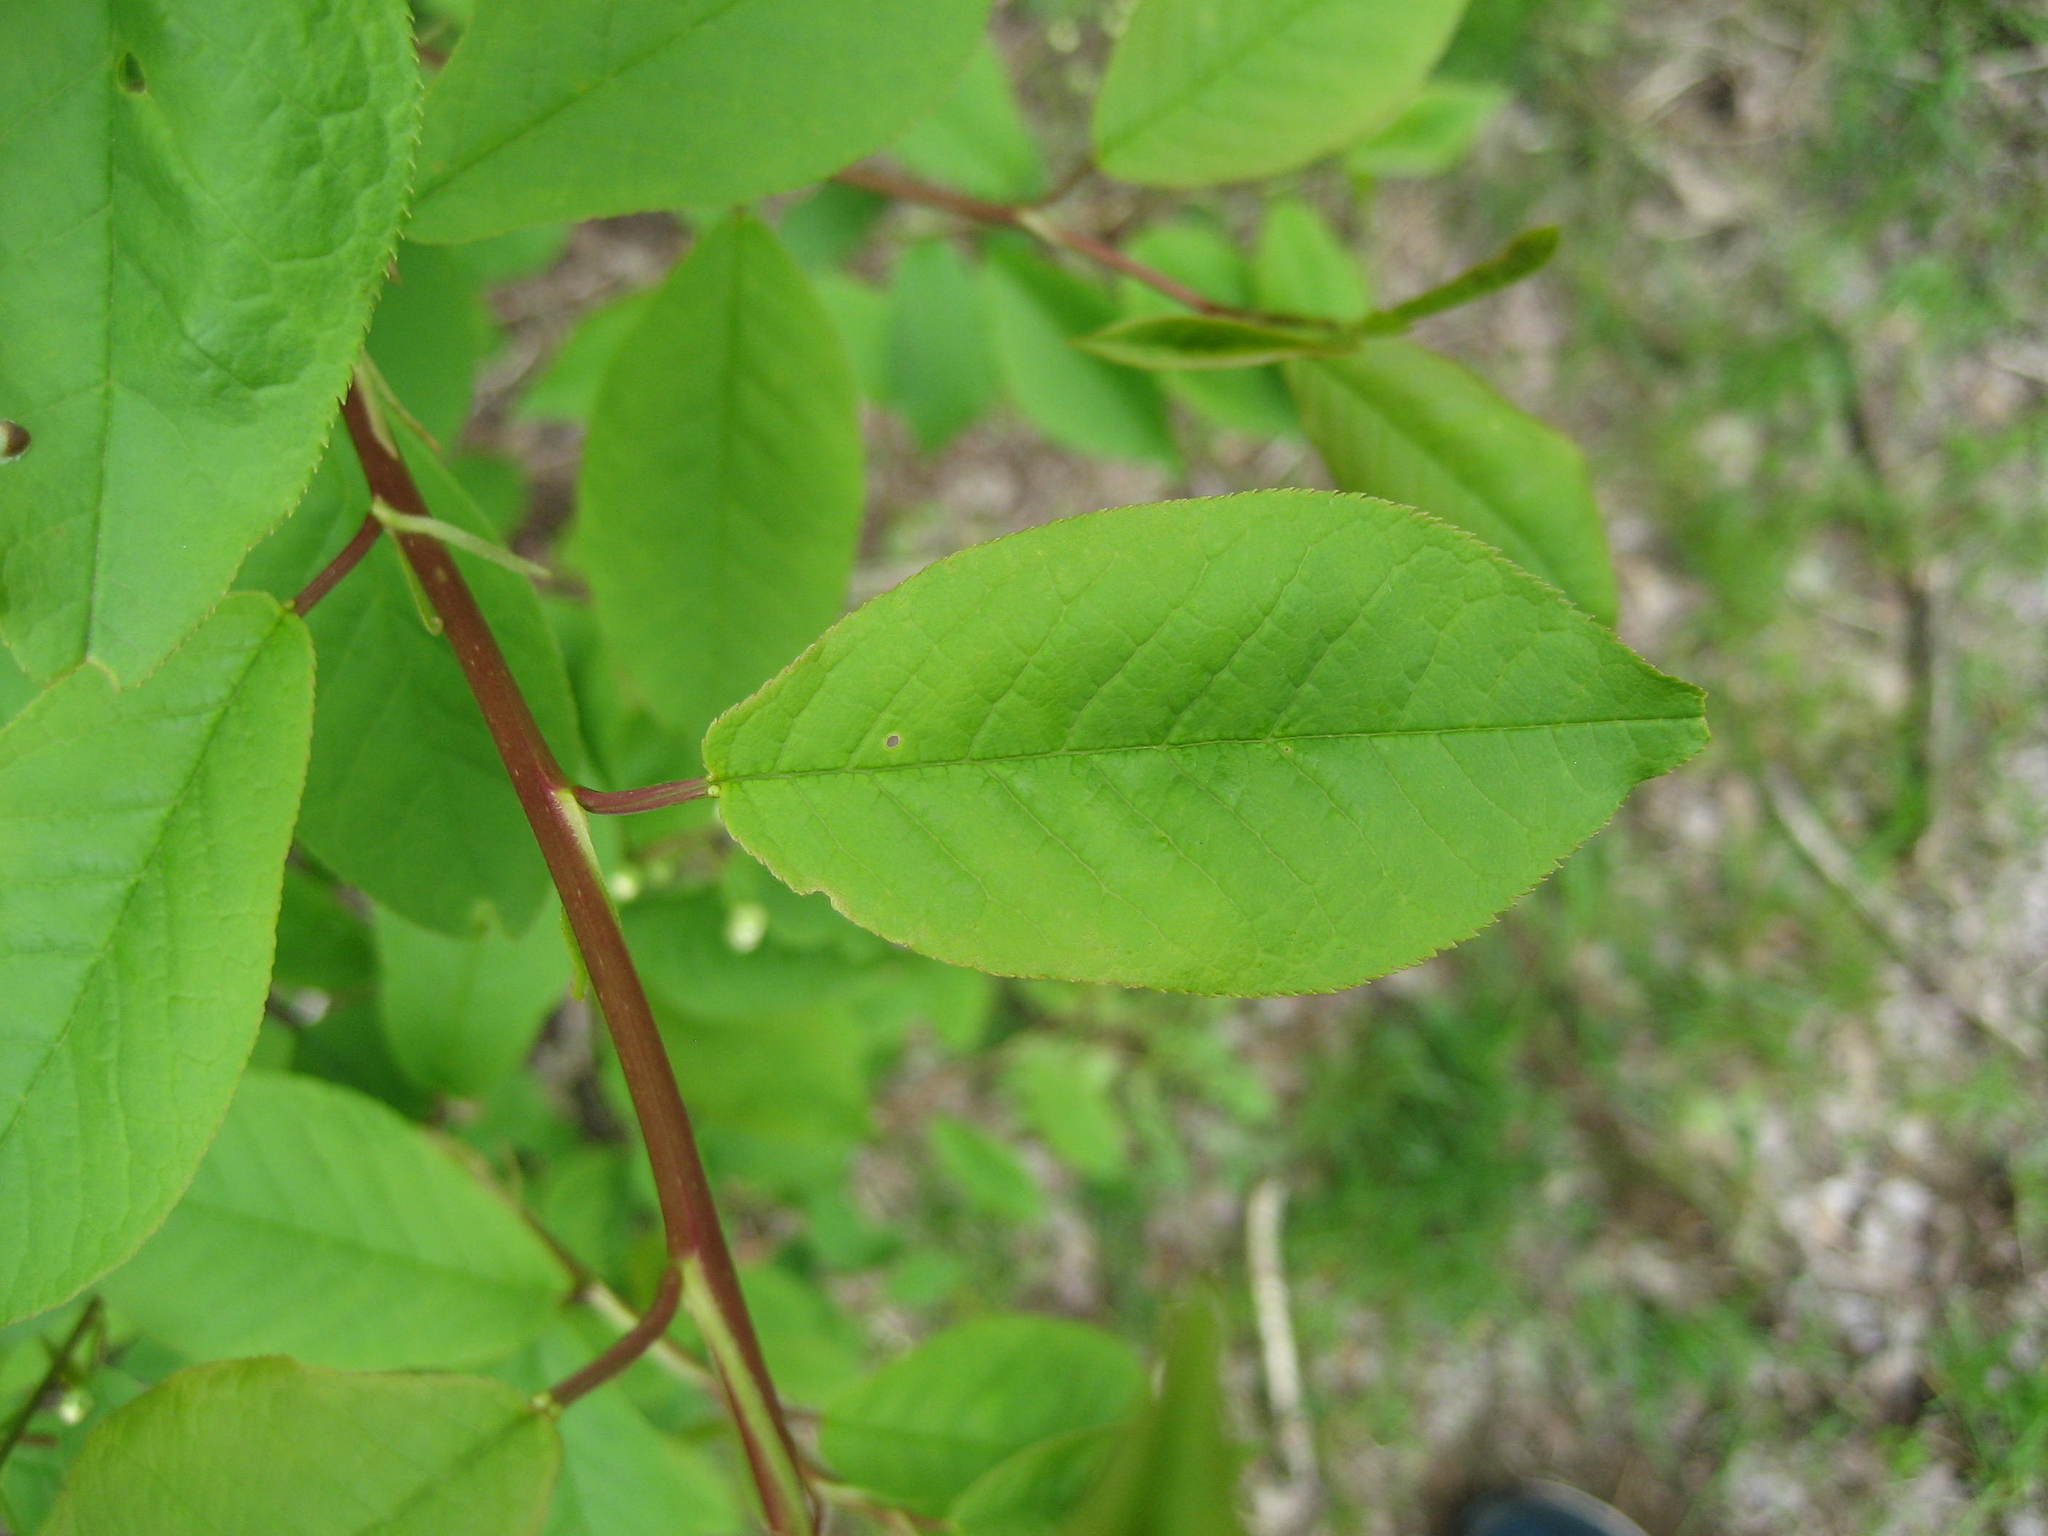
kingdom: Plantae
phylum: Tracheophyta
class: Magnoliopsida
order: Rosales
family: Rosaceae
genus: Prunus
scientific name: Prunus virginiana
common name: Chokecherry
